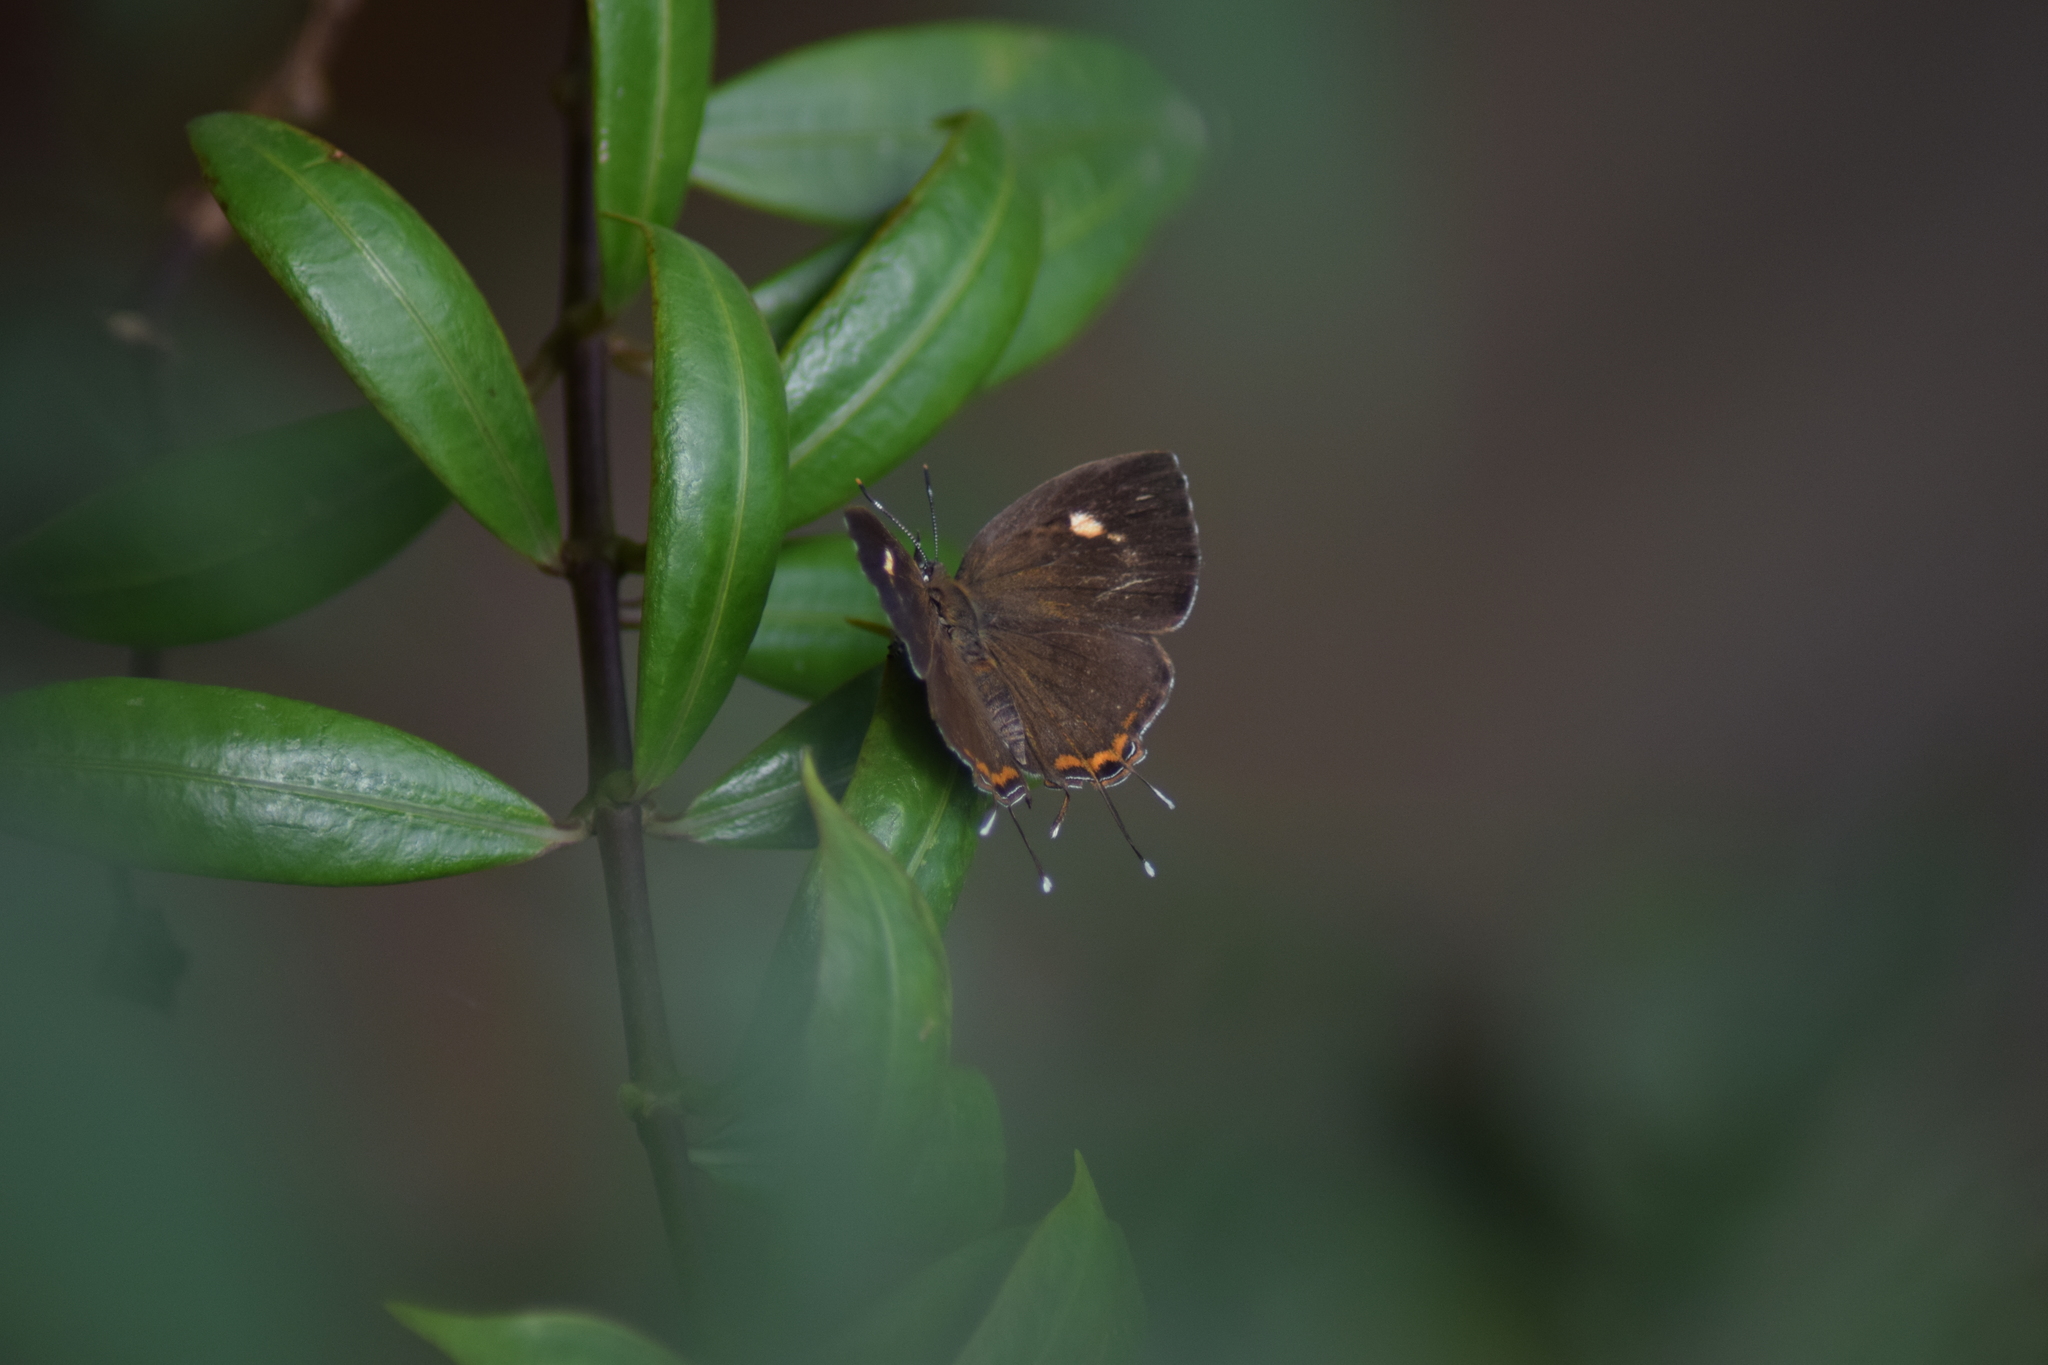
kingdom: Animalia
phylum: Arthropoda
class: Insecta
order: Lepidoptera
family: Lycaenidae
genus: Rathinda
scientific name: Rathinda amor
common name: Monkey puzzle
